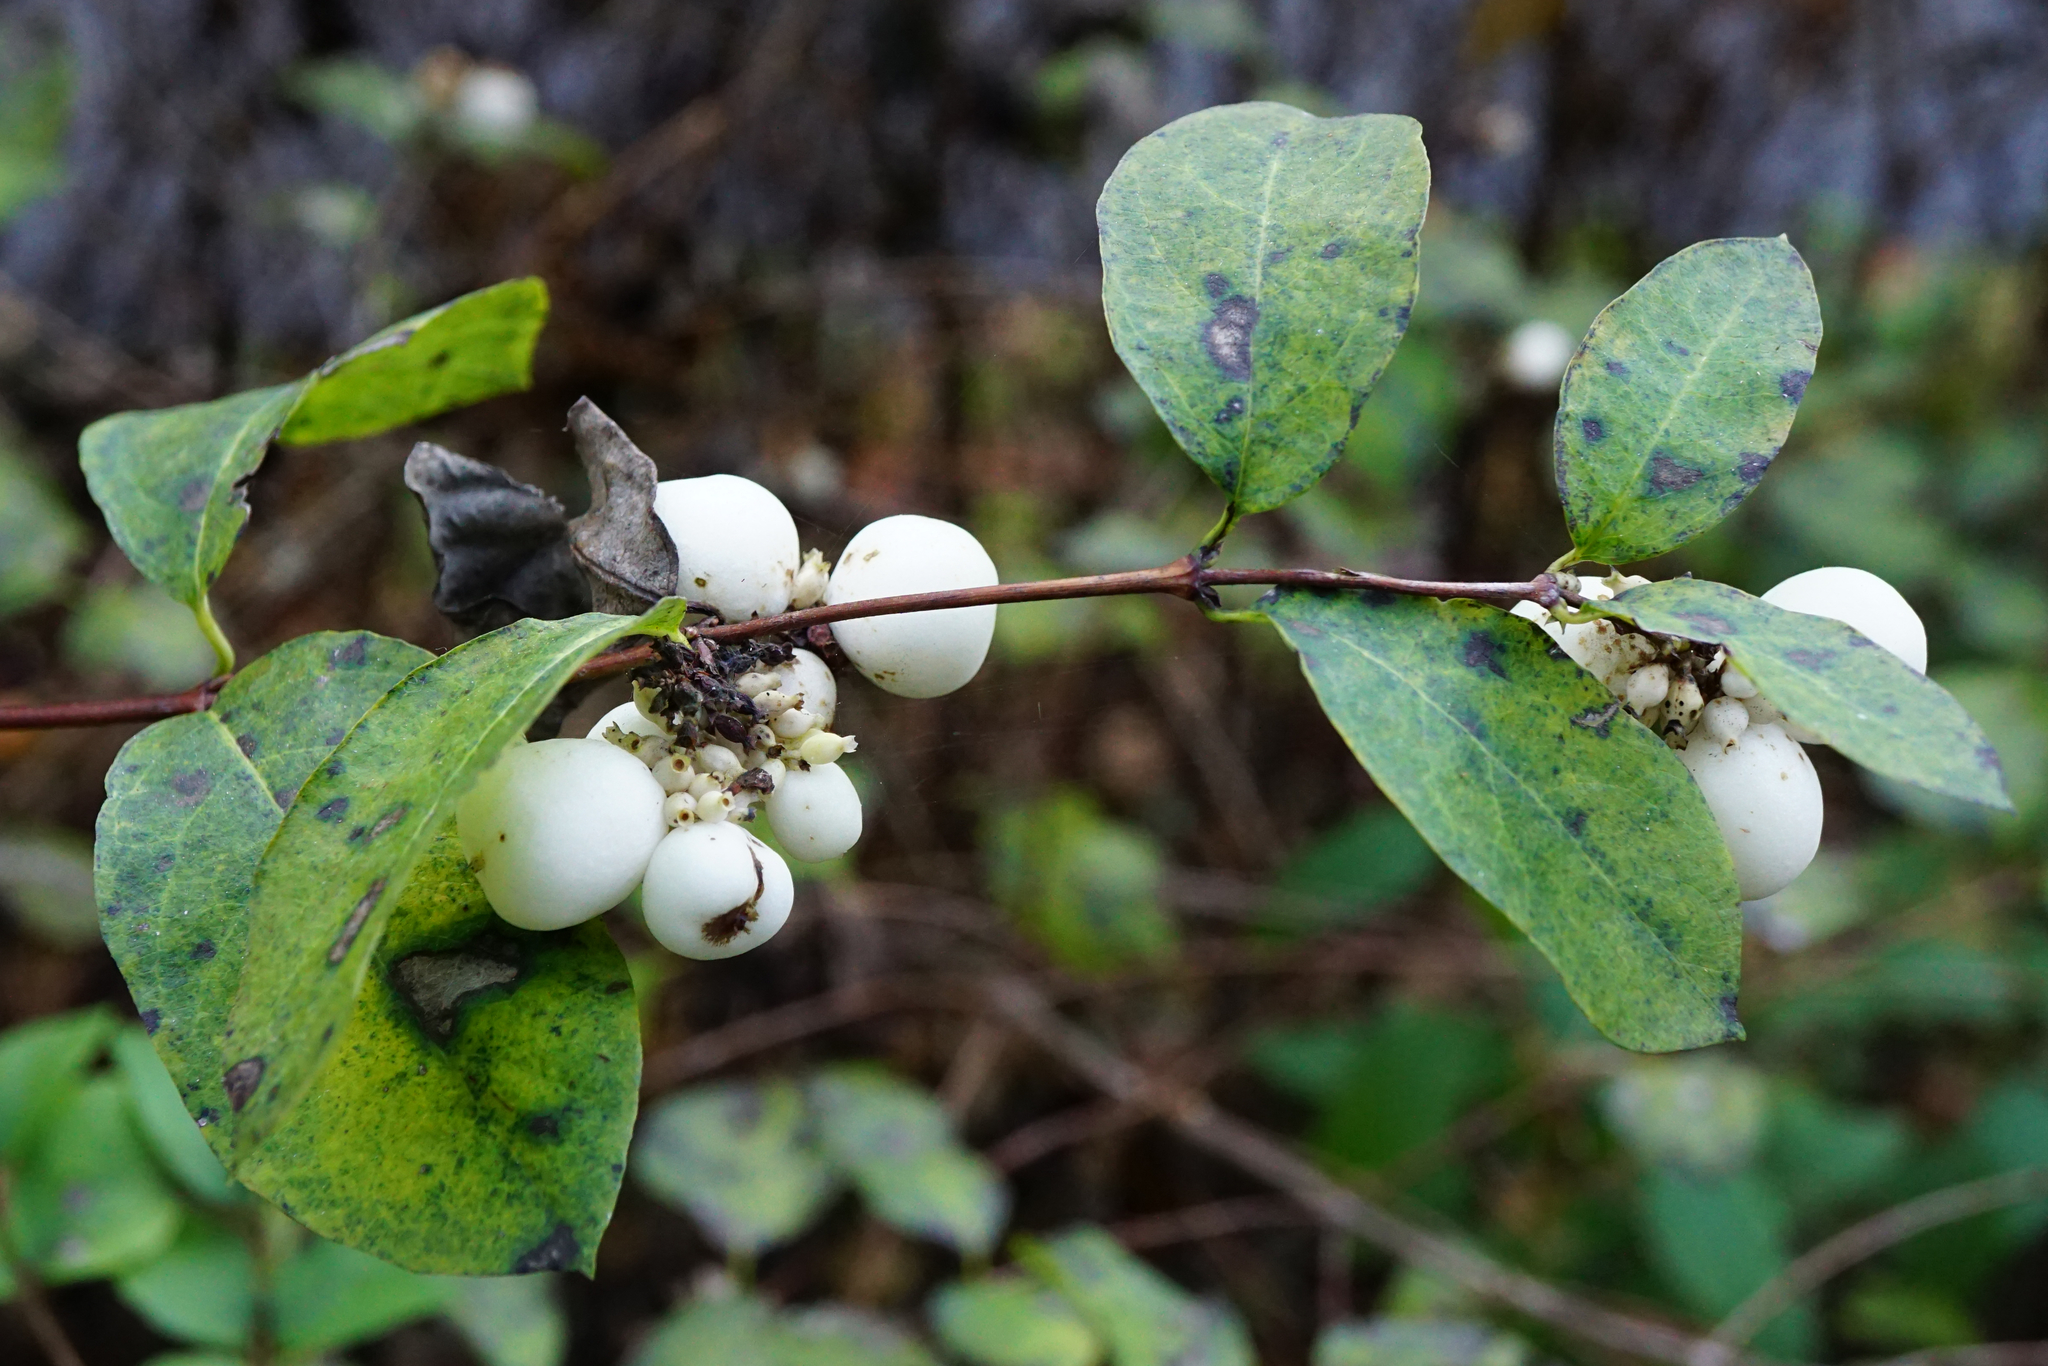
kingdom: Plantae
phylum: Tracheophyta
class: Magnoliopsida
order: Dipsacales
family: Caprifoliaceae
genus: Symphoricarpos
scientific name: Symphoricarpos albus
